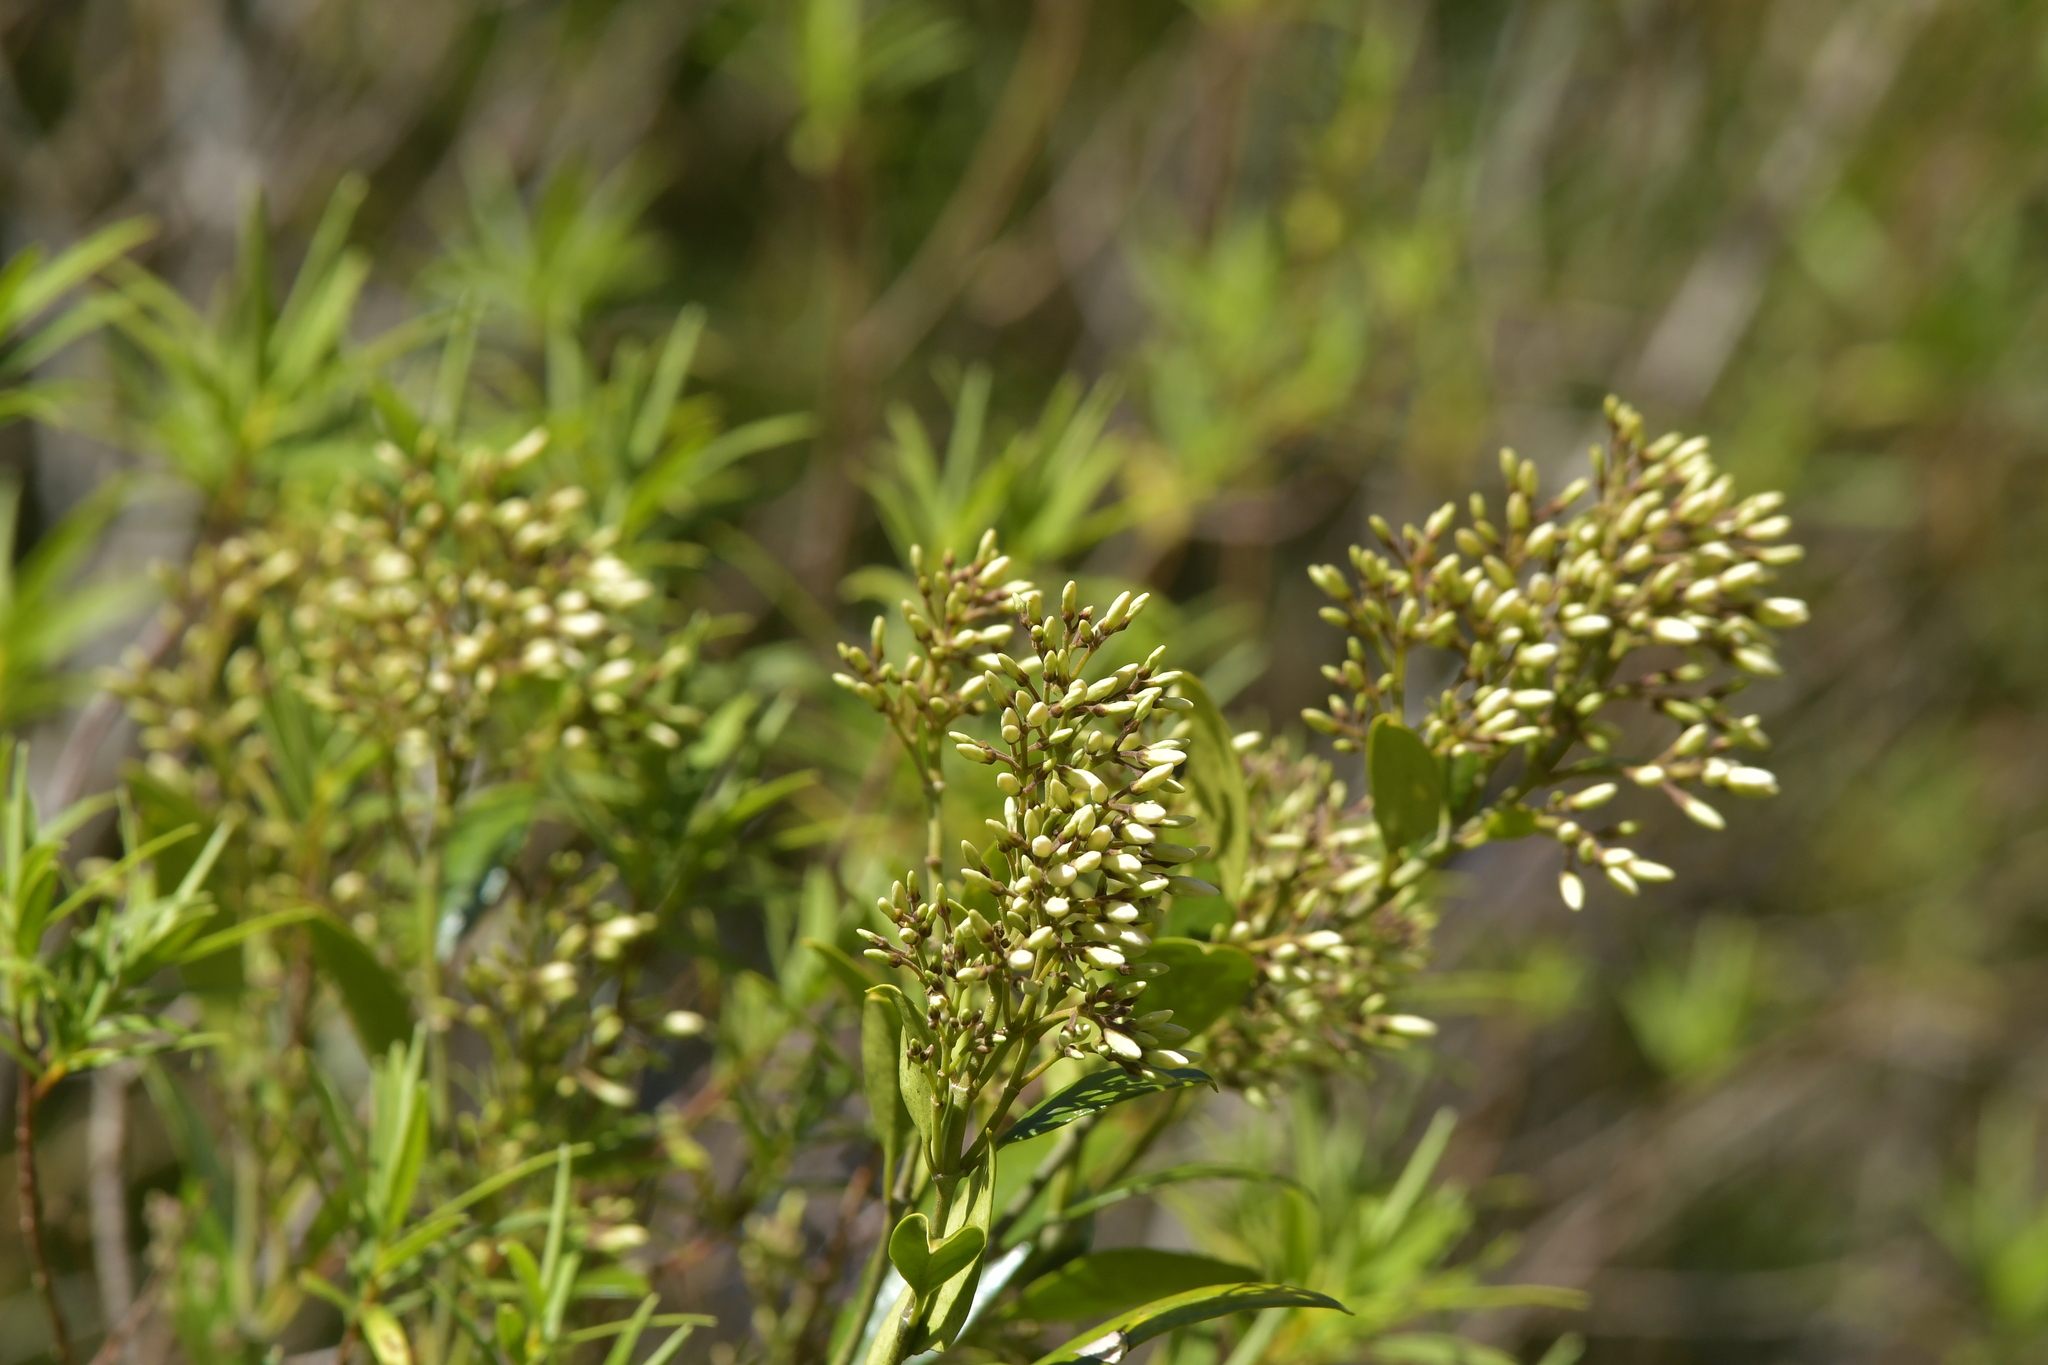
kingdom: Plantae
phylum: Tracheophyta
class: Magnoliopsida
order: Gentianales
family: Apocynaceae
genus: Parsonsia
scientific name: Parsonsia heterophylla
